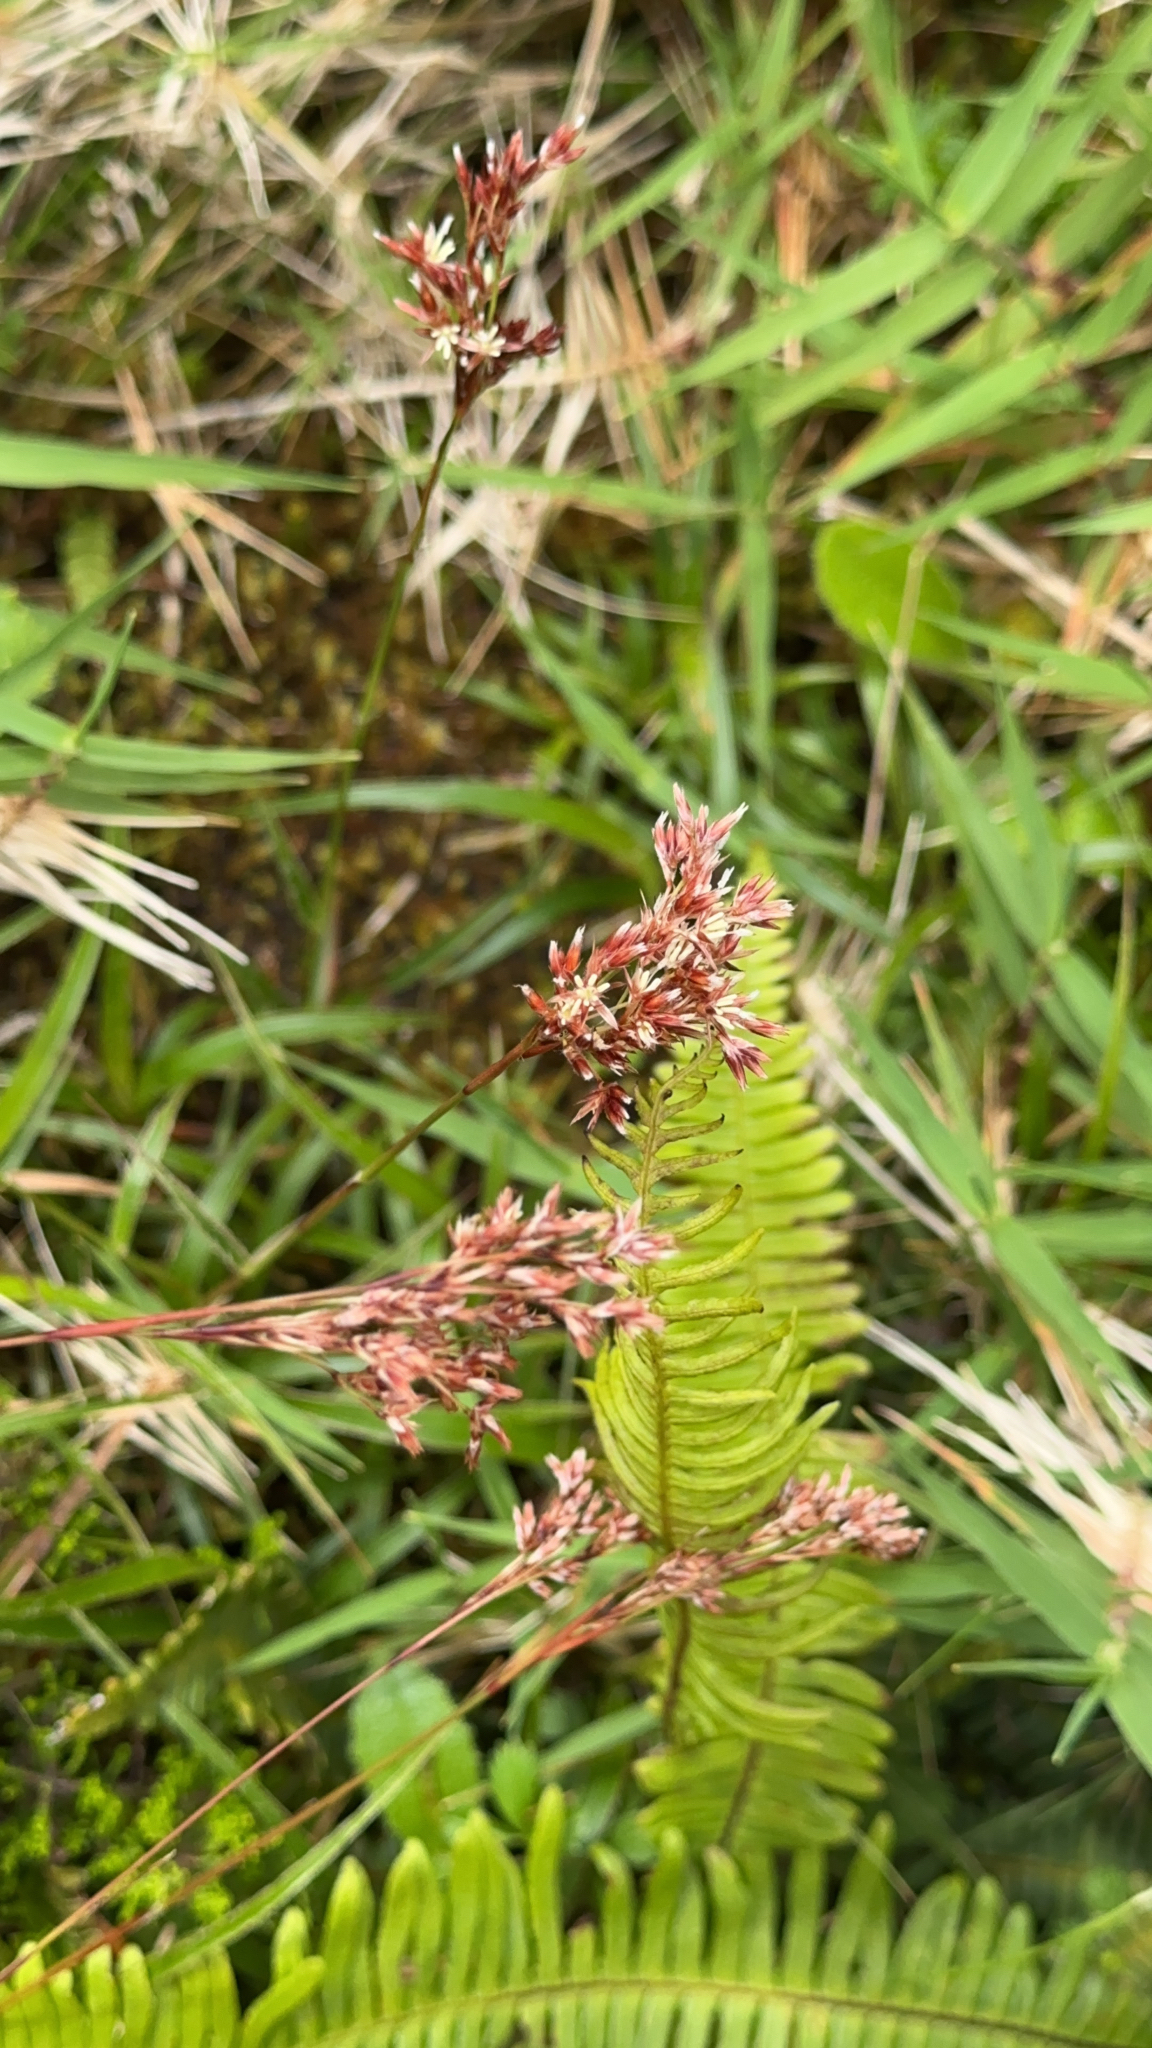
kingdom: Plantae
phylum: Tracheophyta
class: Liliopsida
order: Poales
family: Juncaceae
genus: Luzula
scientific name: Luzula purpureosplendens
